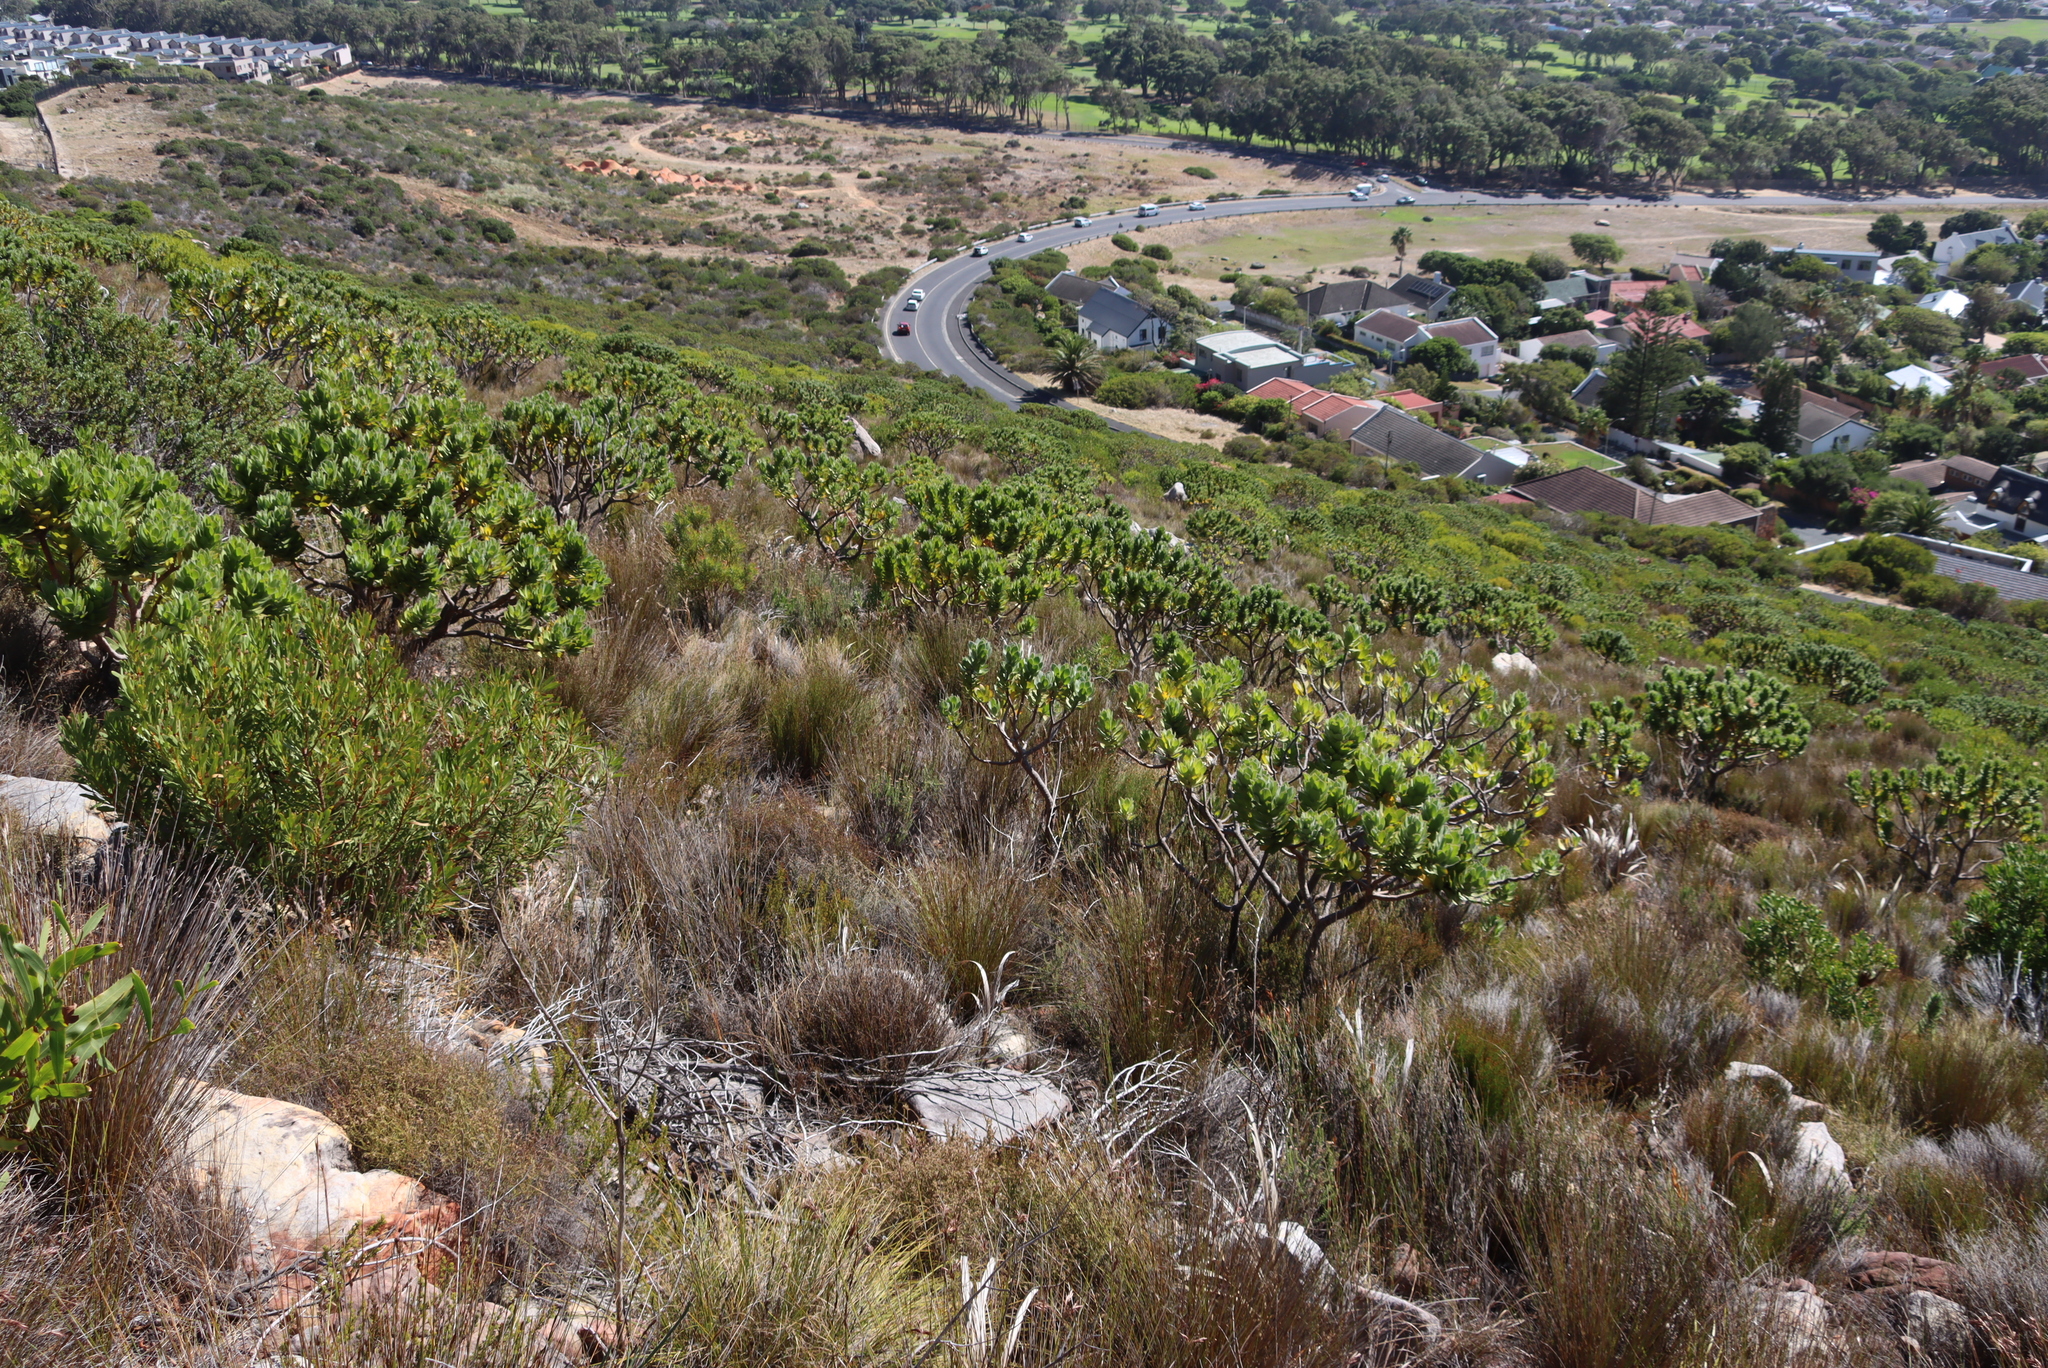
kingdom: Plantae
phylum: Tracheophyta
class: Magnoliopsida
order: Proteales
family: Proteaceae
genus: Leucospermum
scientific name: Leucospermum conocarpodendron
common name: Tree pincushion
